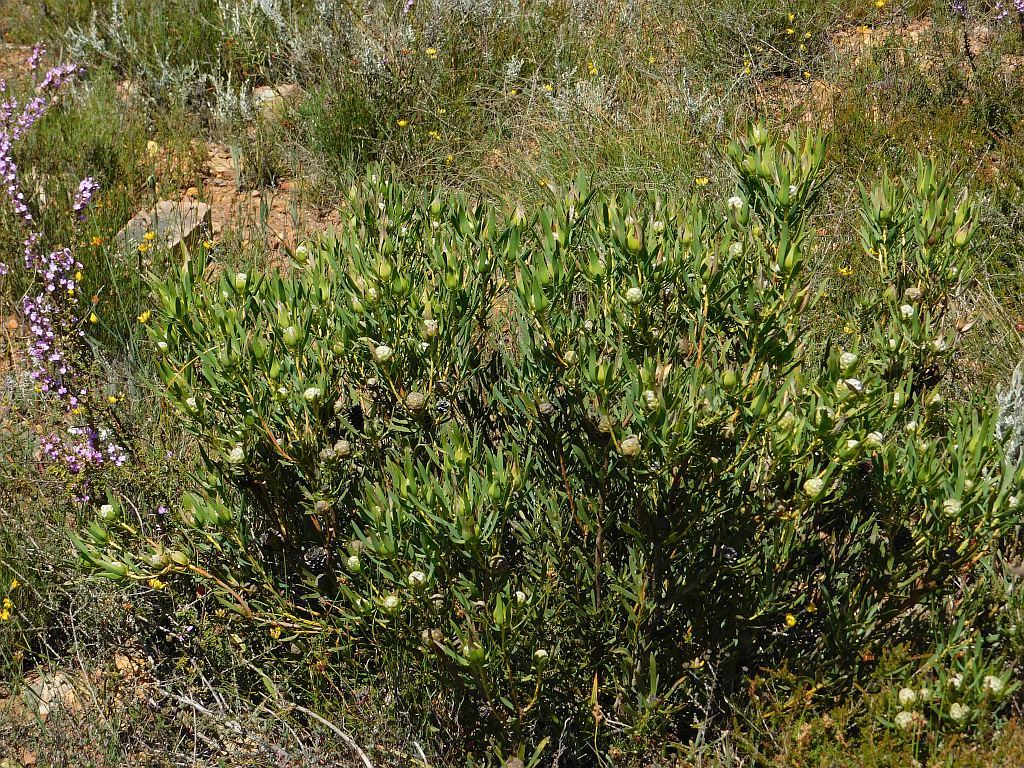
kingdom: Plantae
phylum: Tracheophyta
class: Magnoliopsida
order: Proteales
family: Proteaceae
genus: Leucadendron
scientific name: Leucadendron salignum
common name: Common sunshine conebush
